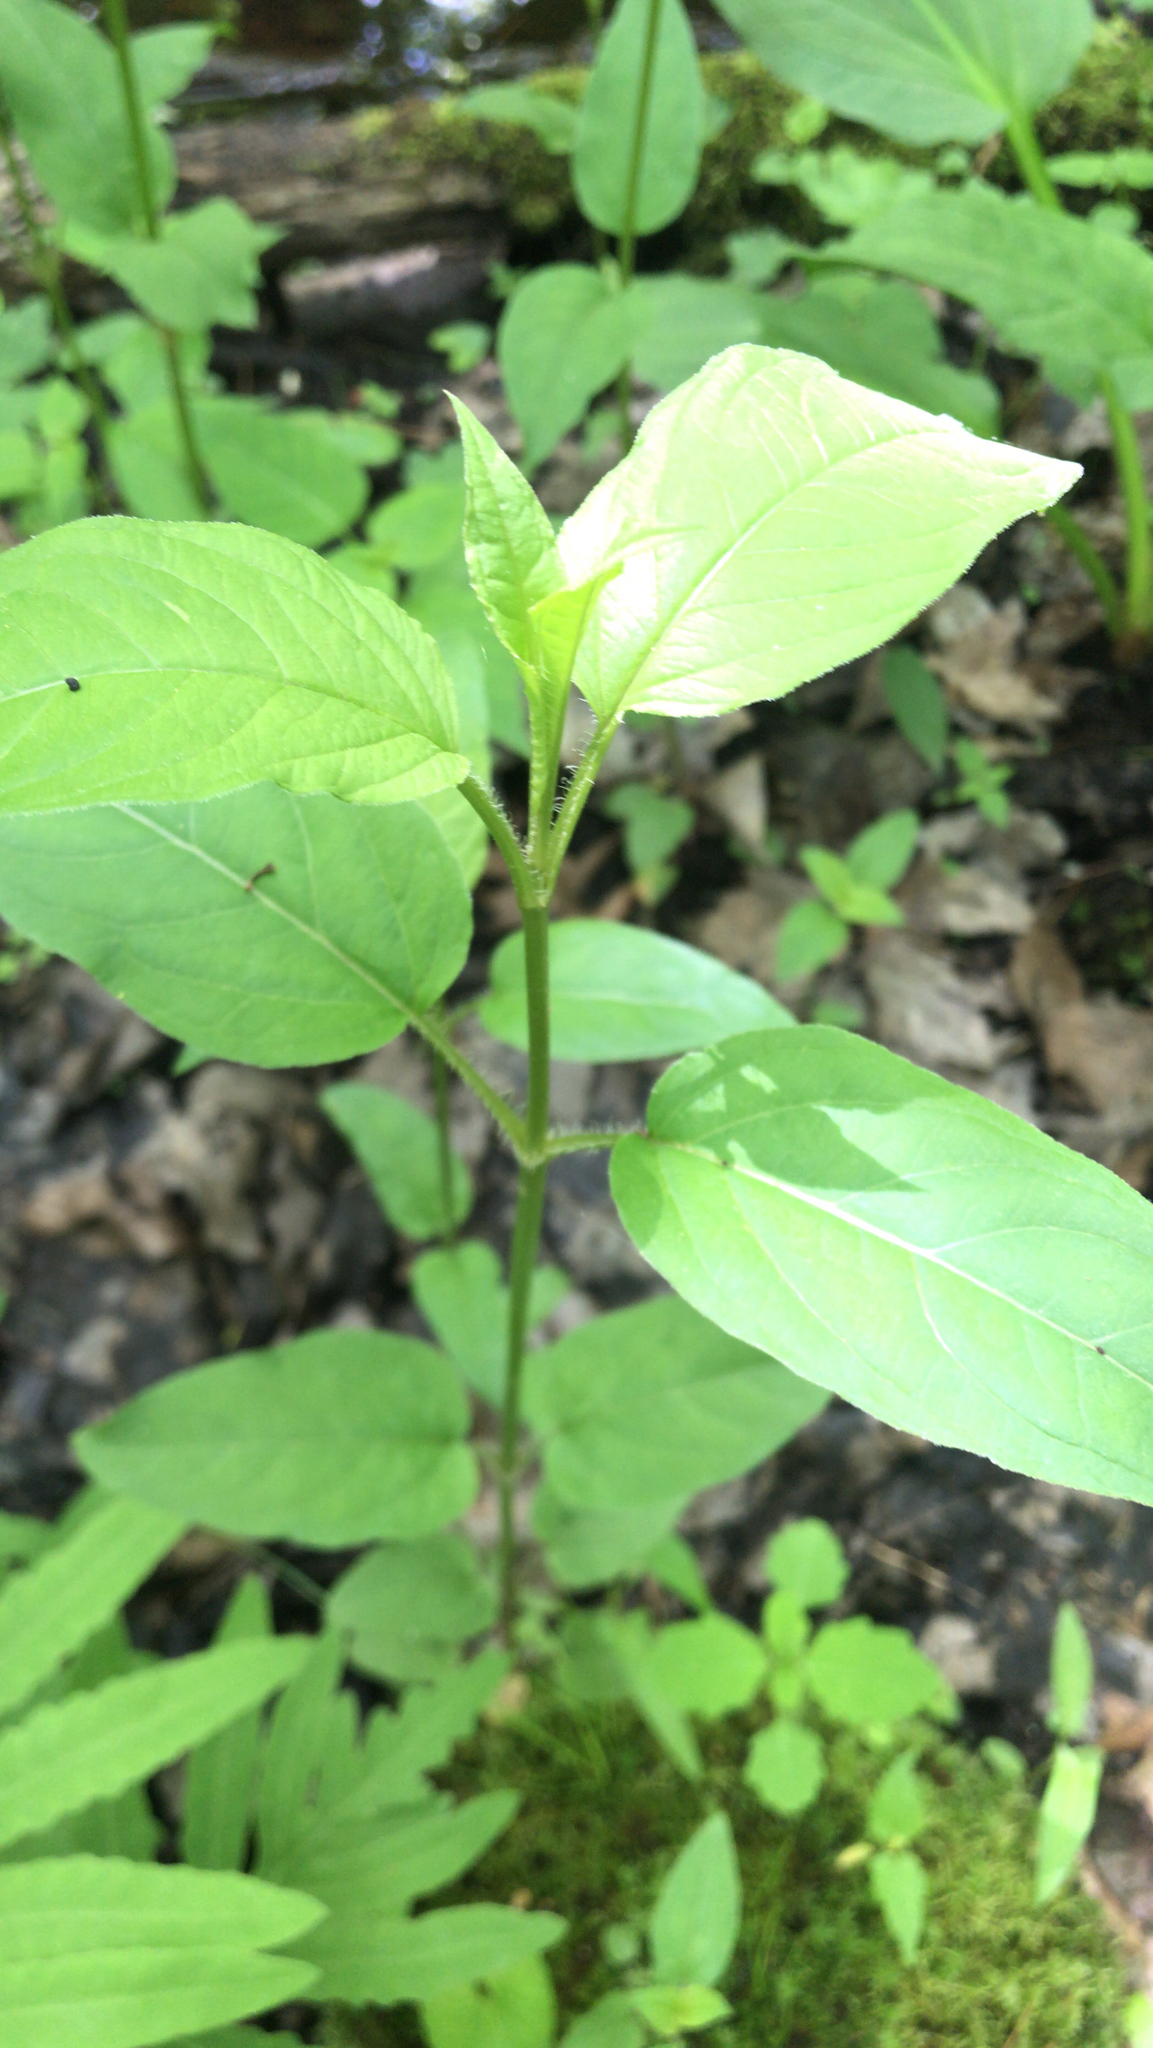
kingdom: Plantae
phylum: Tracheophyta
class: Magnoliopsida
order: Ericales
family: Primulaceae
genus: Lysimachia
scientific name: Lysimachia ciliata
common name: Fringed loosestrife
